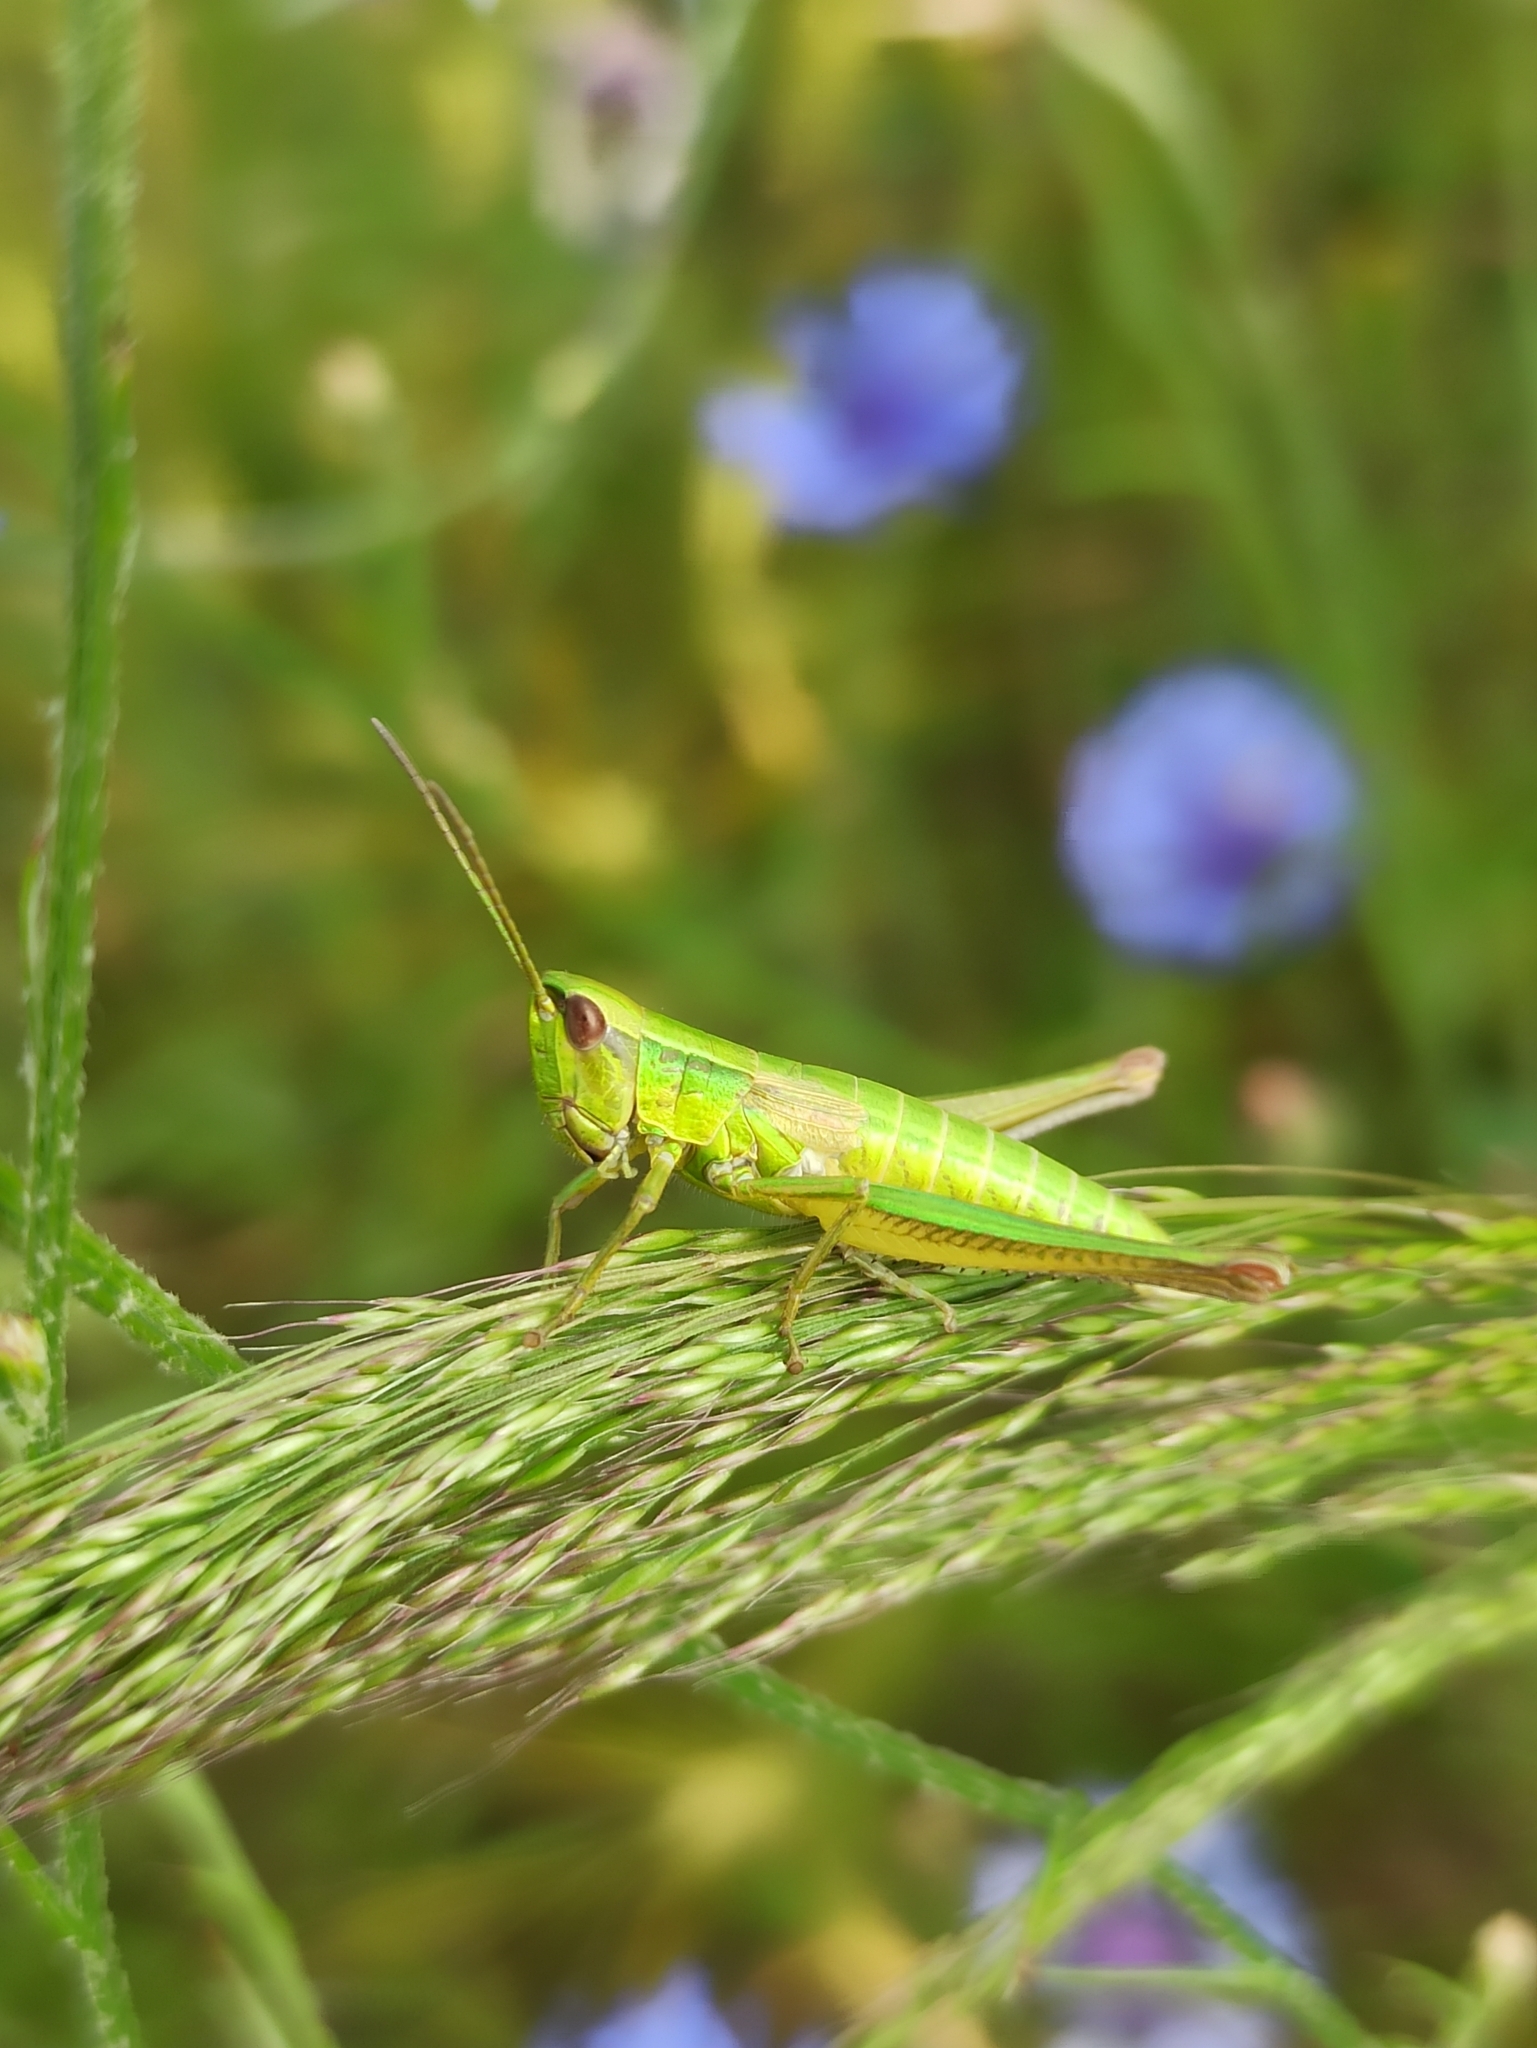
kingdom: Animalia
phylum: Arthropoda
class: Insecta
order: Orthoptera
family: Acrididae
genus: Euthystira
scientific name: Euthystira brachyptera
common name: Small gold grasshopper
